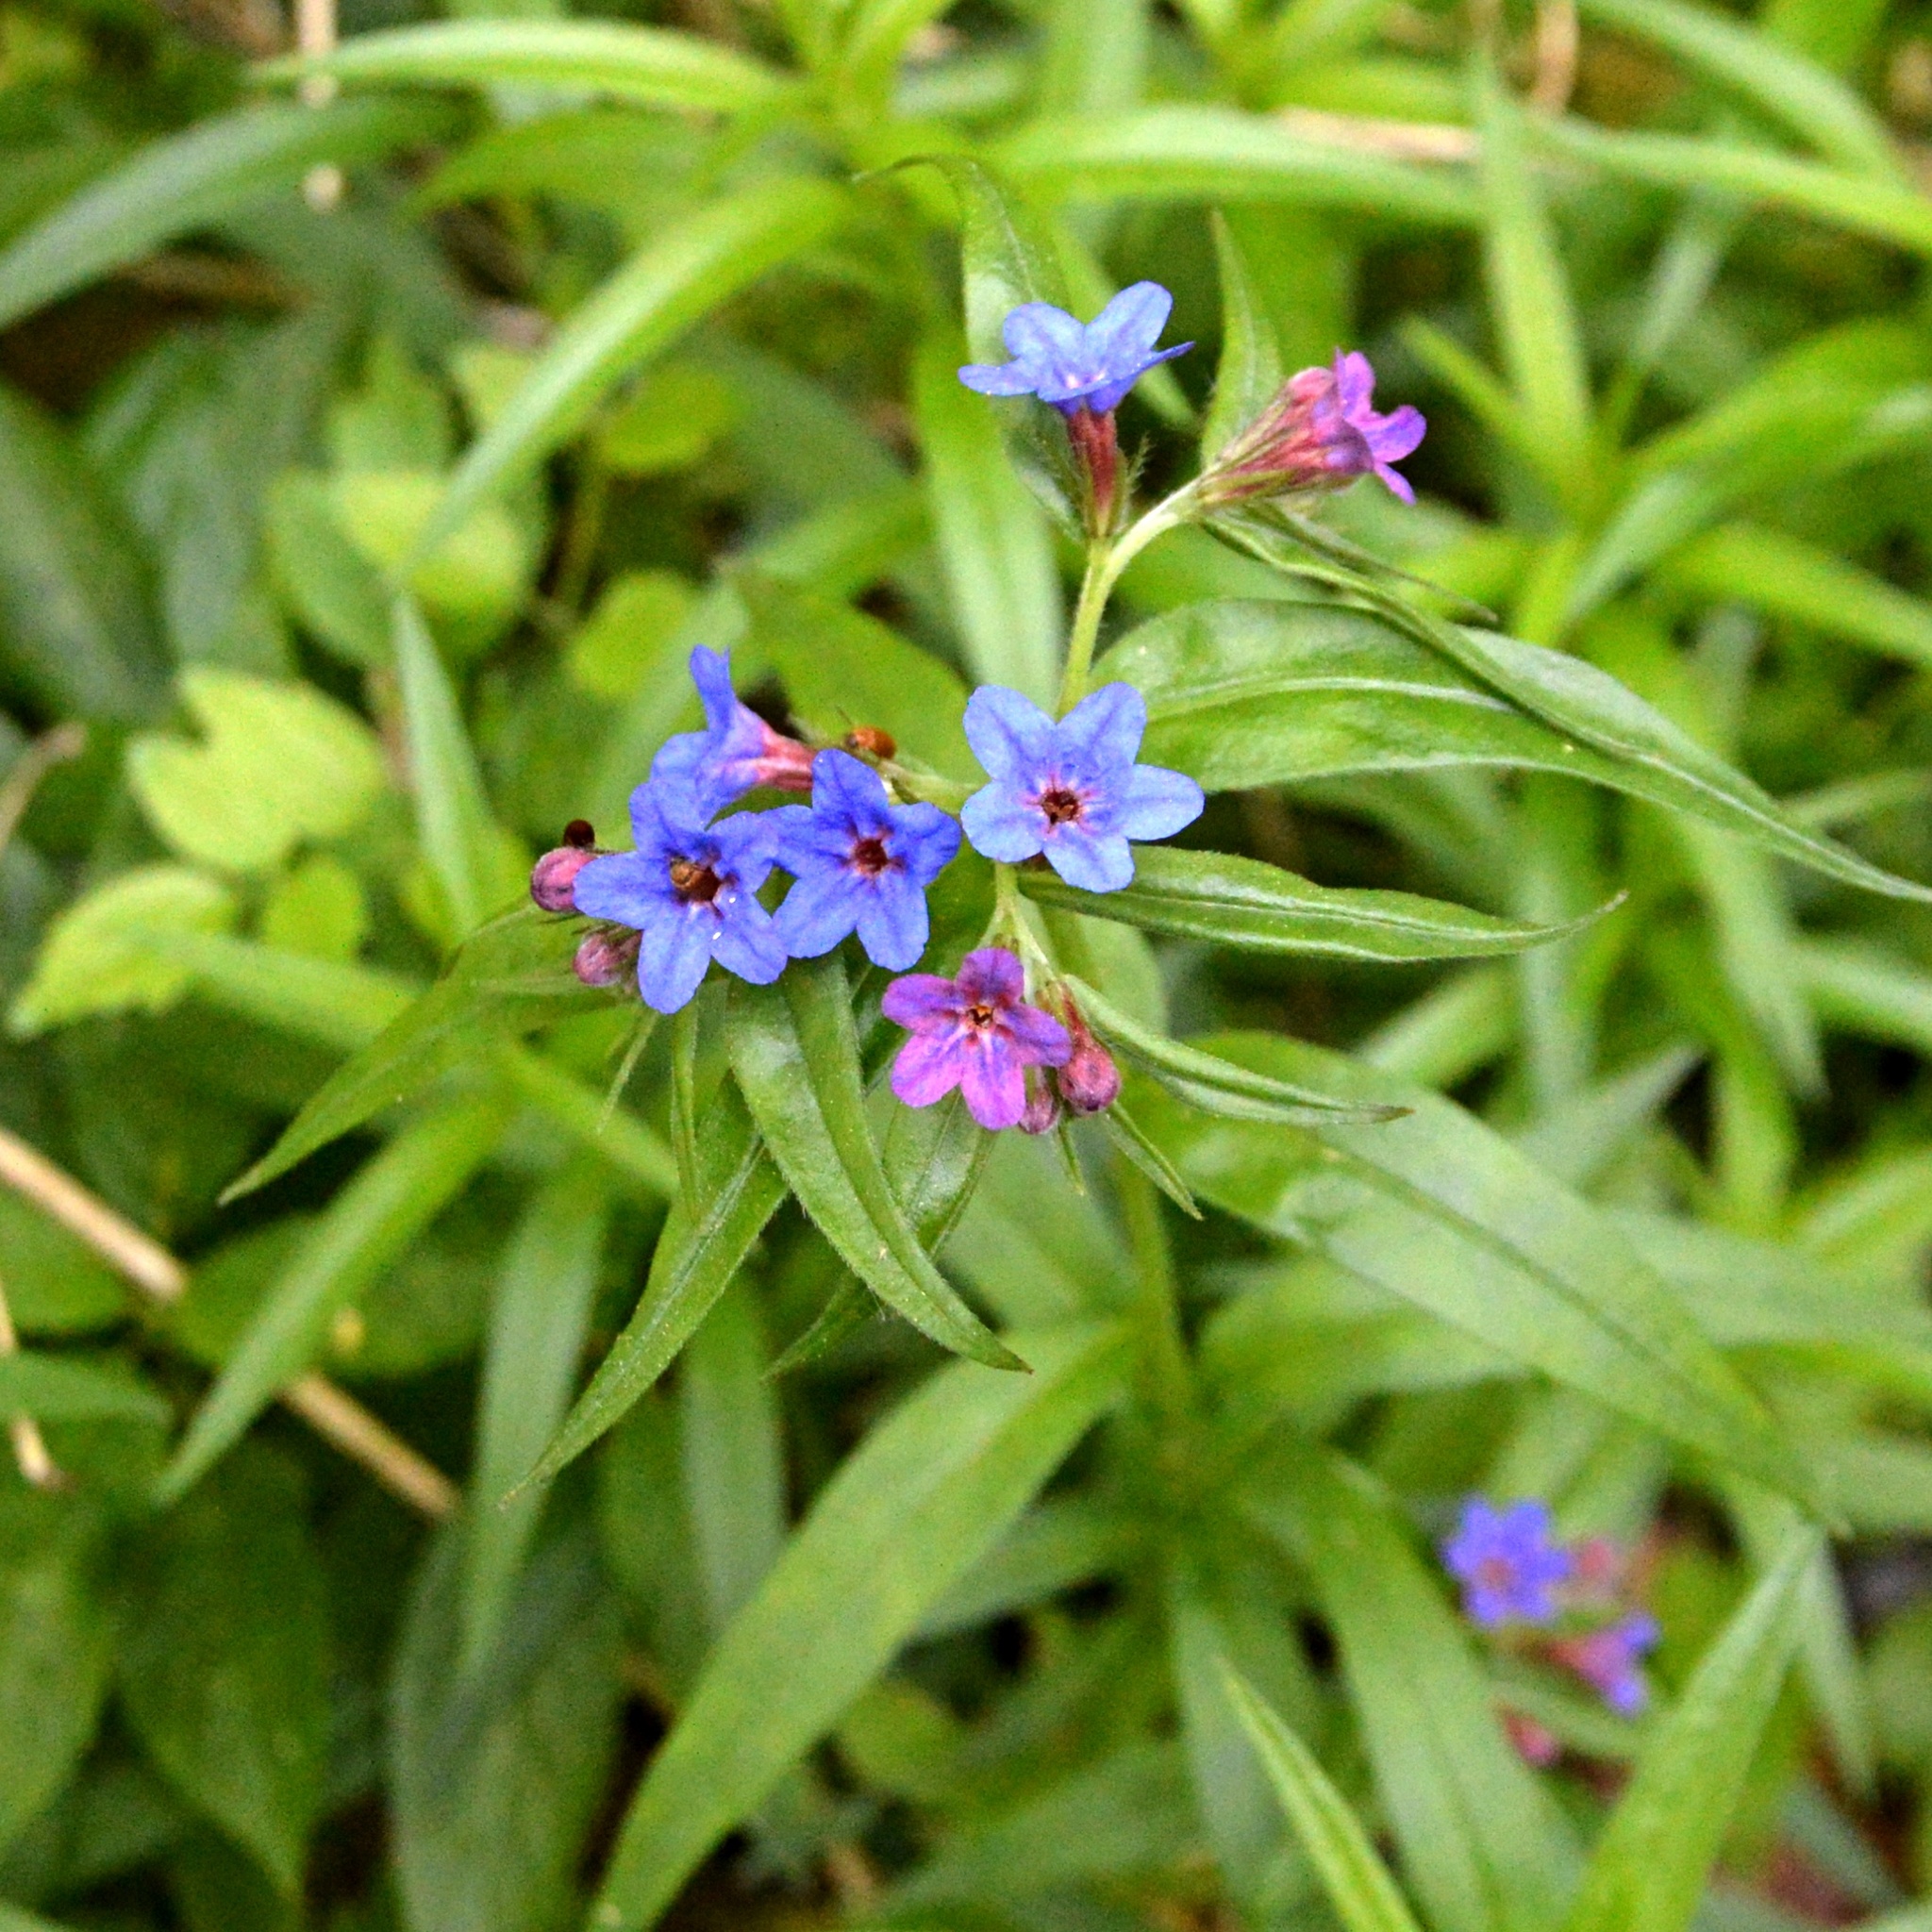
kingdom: Plantae
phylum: Tracheophyta
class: Magnoliopsida
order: Boraginales
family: Boraginaceae
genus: Aegonychon
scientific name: Aegonychon purpurocaeruleum
